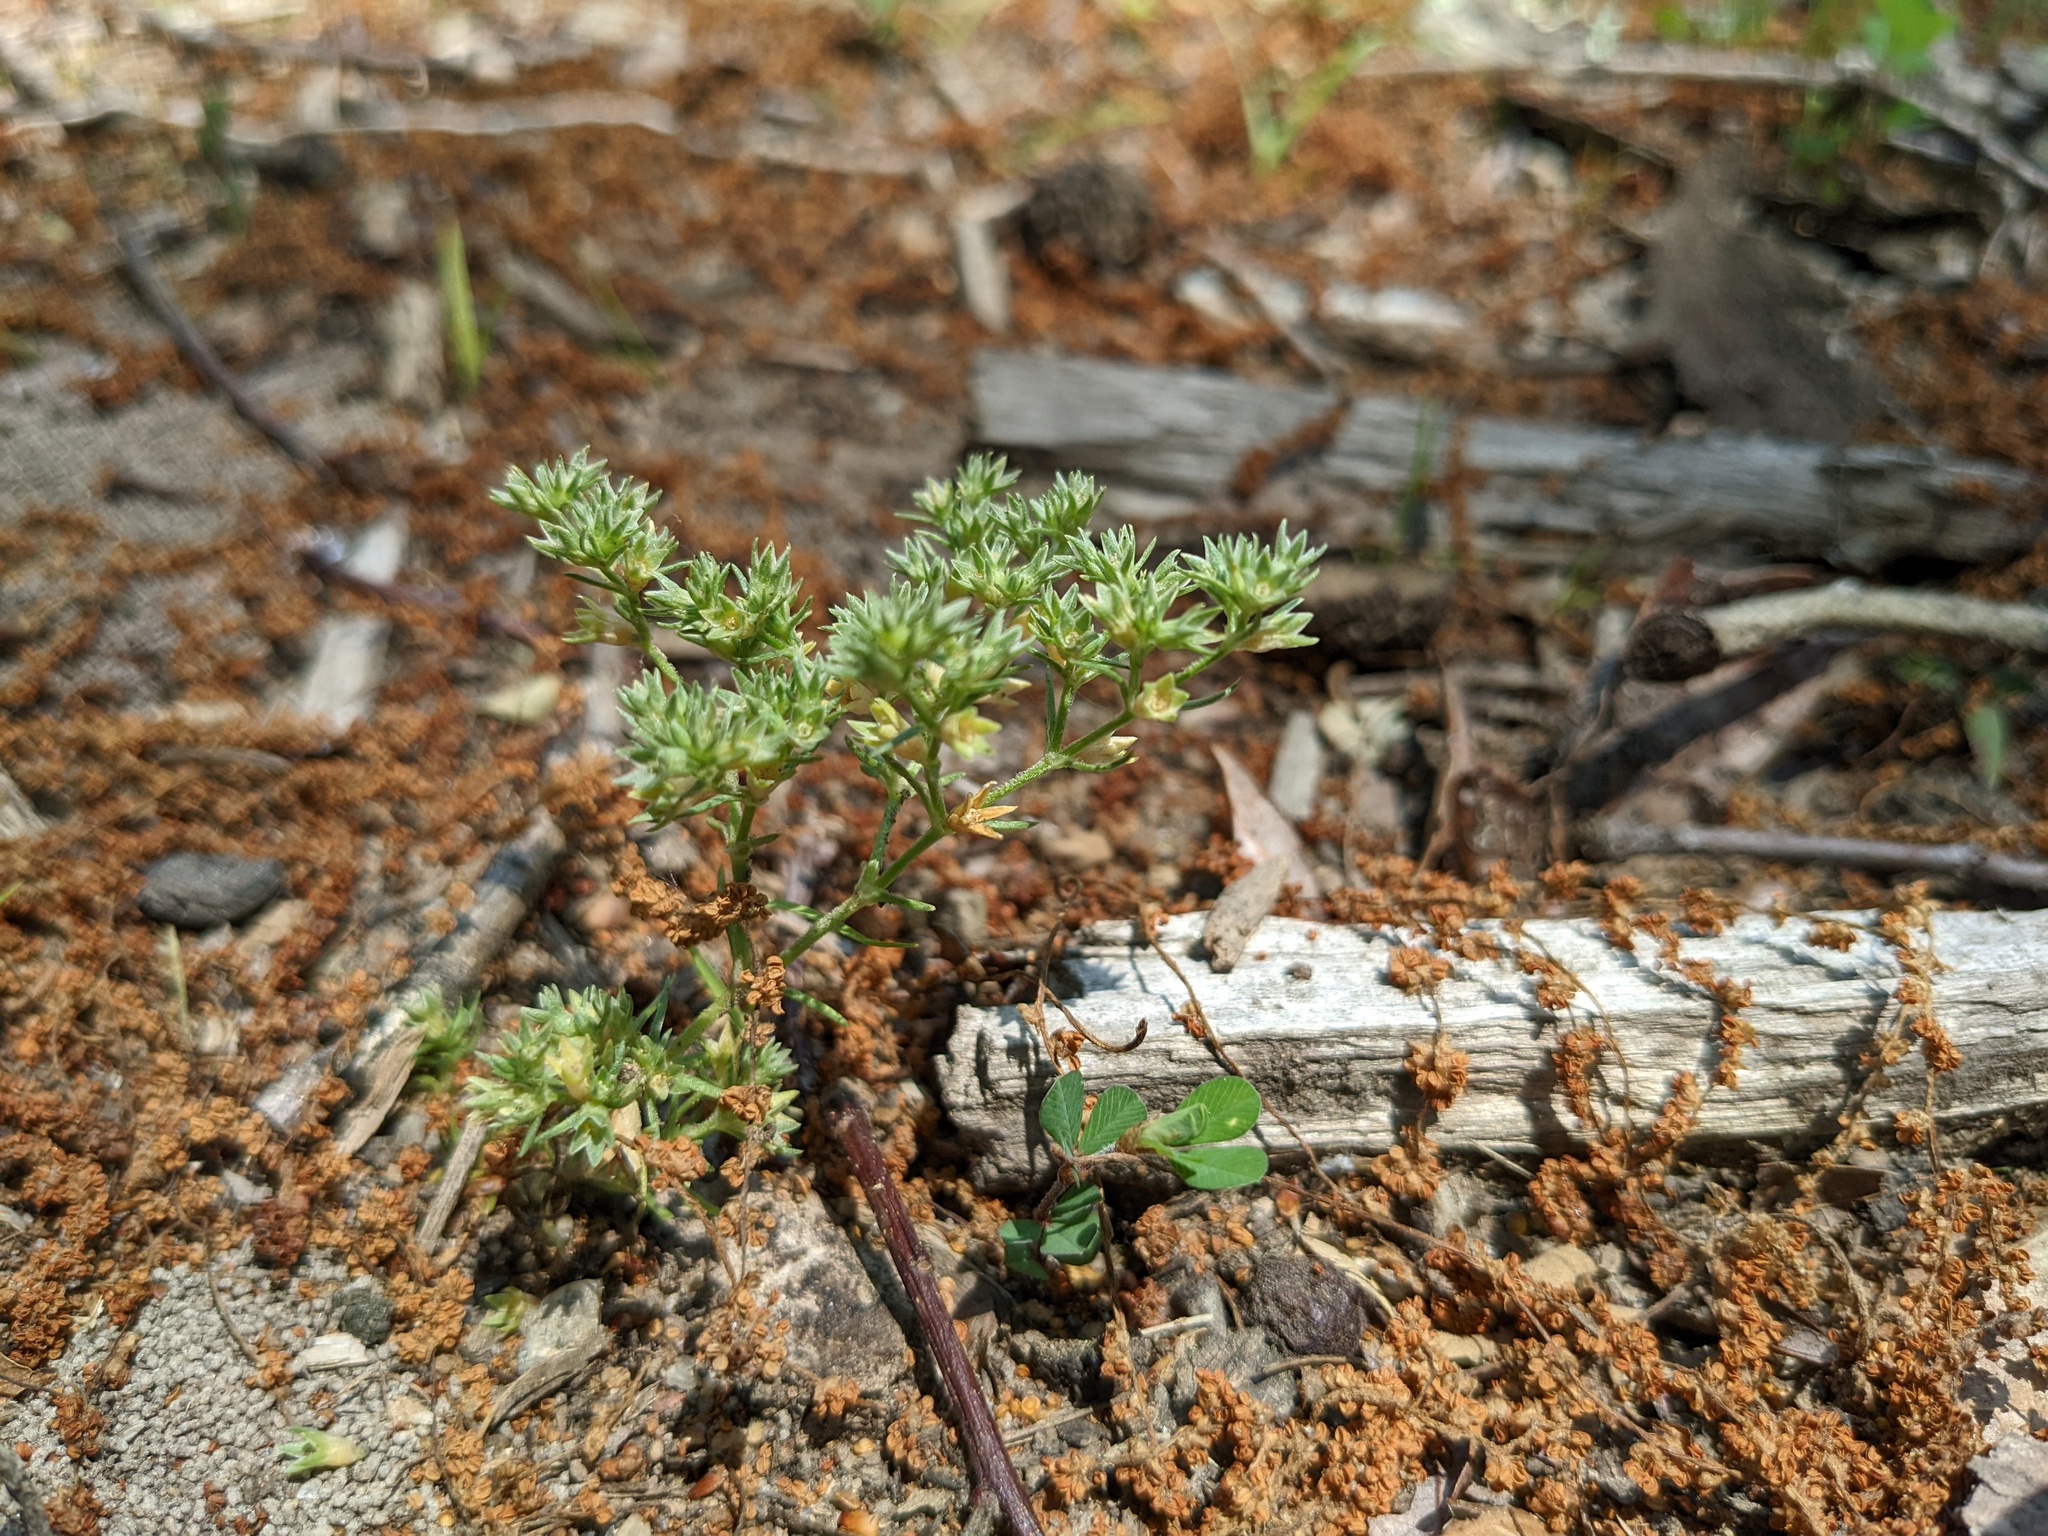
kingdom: Plantae
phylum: Tracheophyta
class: Magnoliopsida
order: Gentianales
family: Rubiaceae
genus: Sherardia
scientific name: Sherardia arvensis
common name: Field madder
